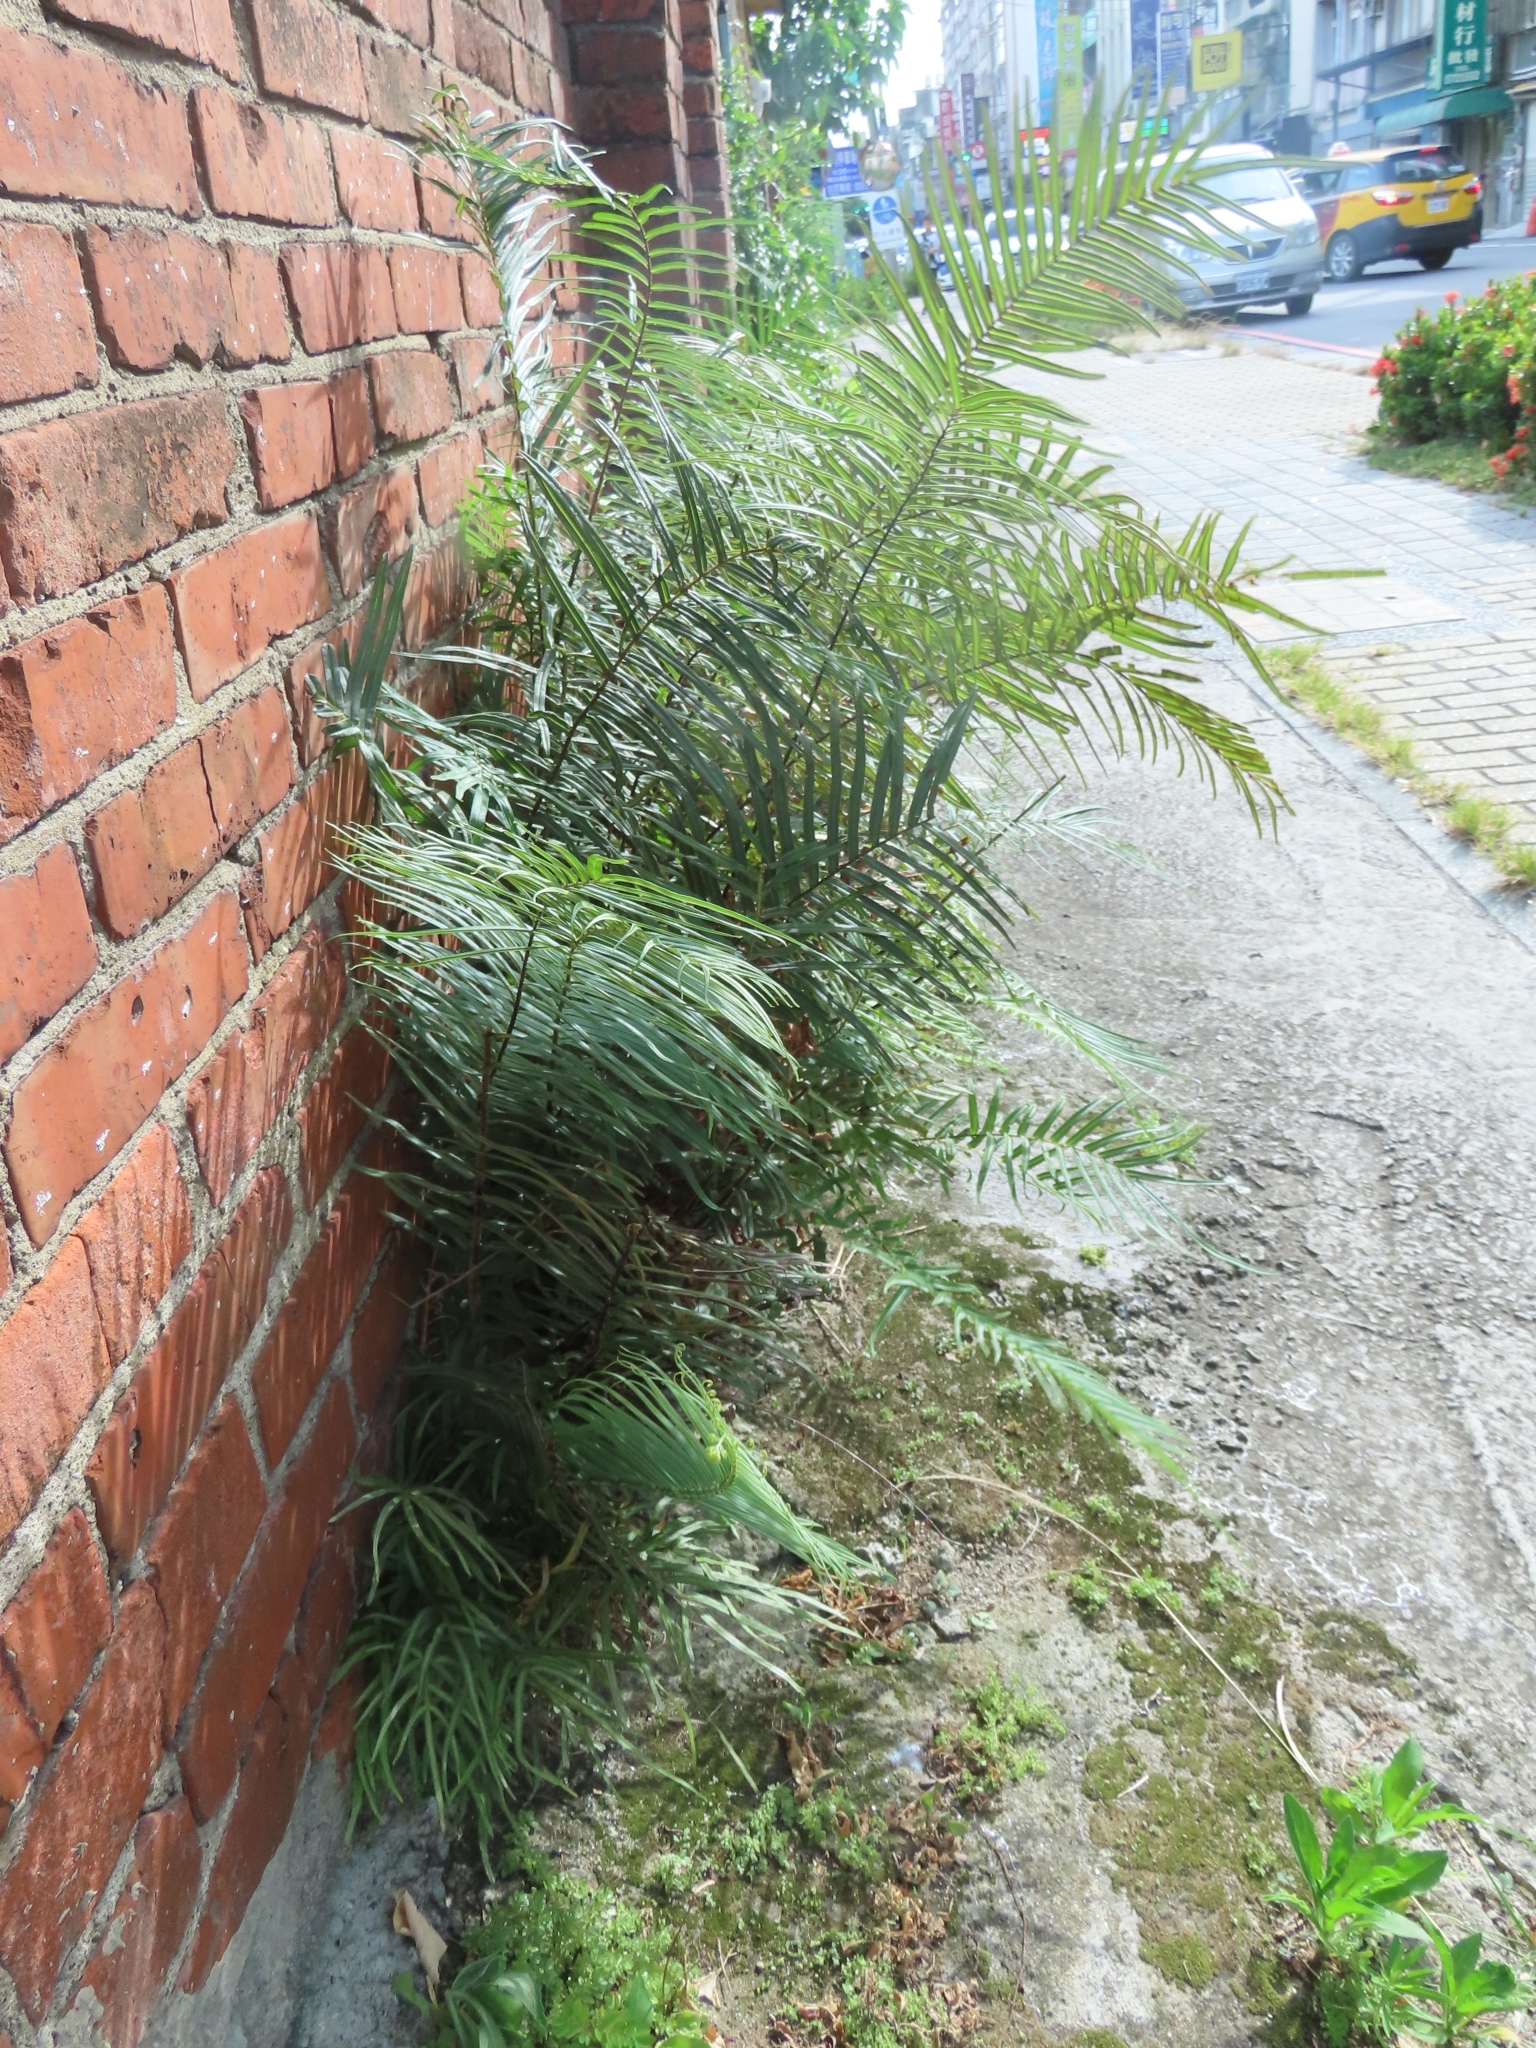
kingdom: Plantae
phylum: Tracheophyta
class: Polypodiopsida
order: Polypodiales
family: Pteridaceae
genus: Pteris
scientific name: Pteris vittata
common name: Ladder brake
